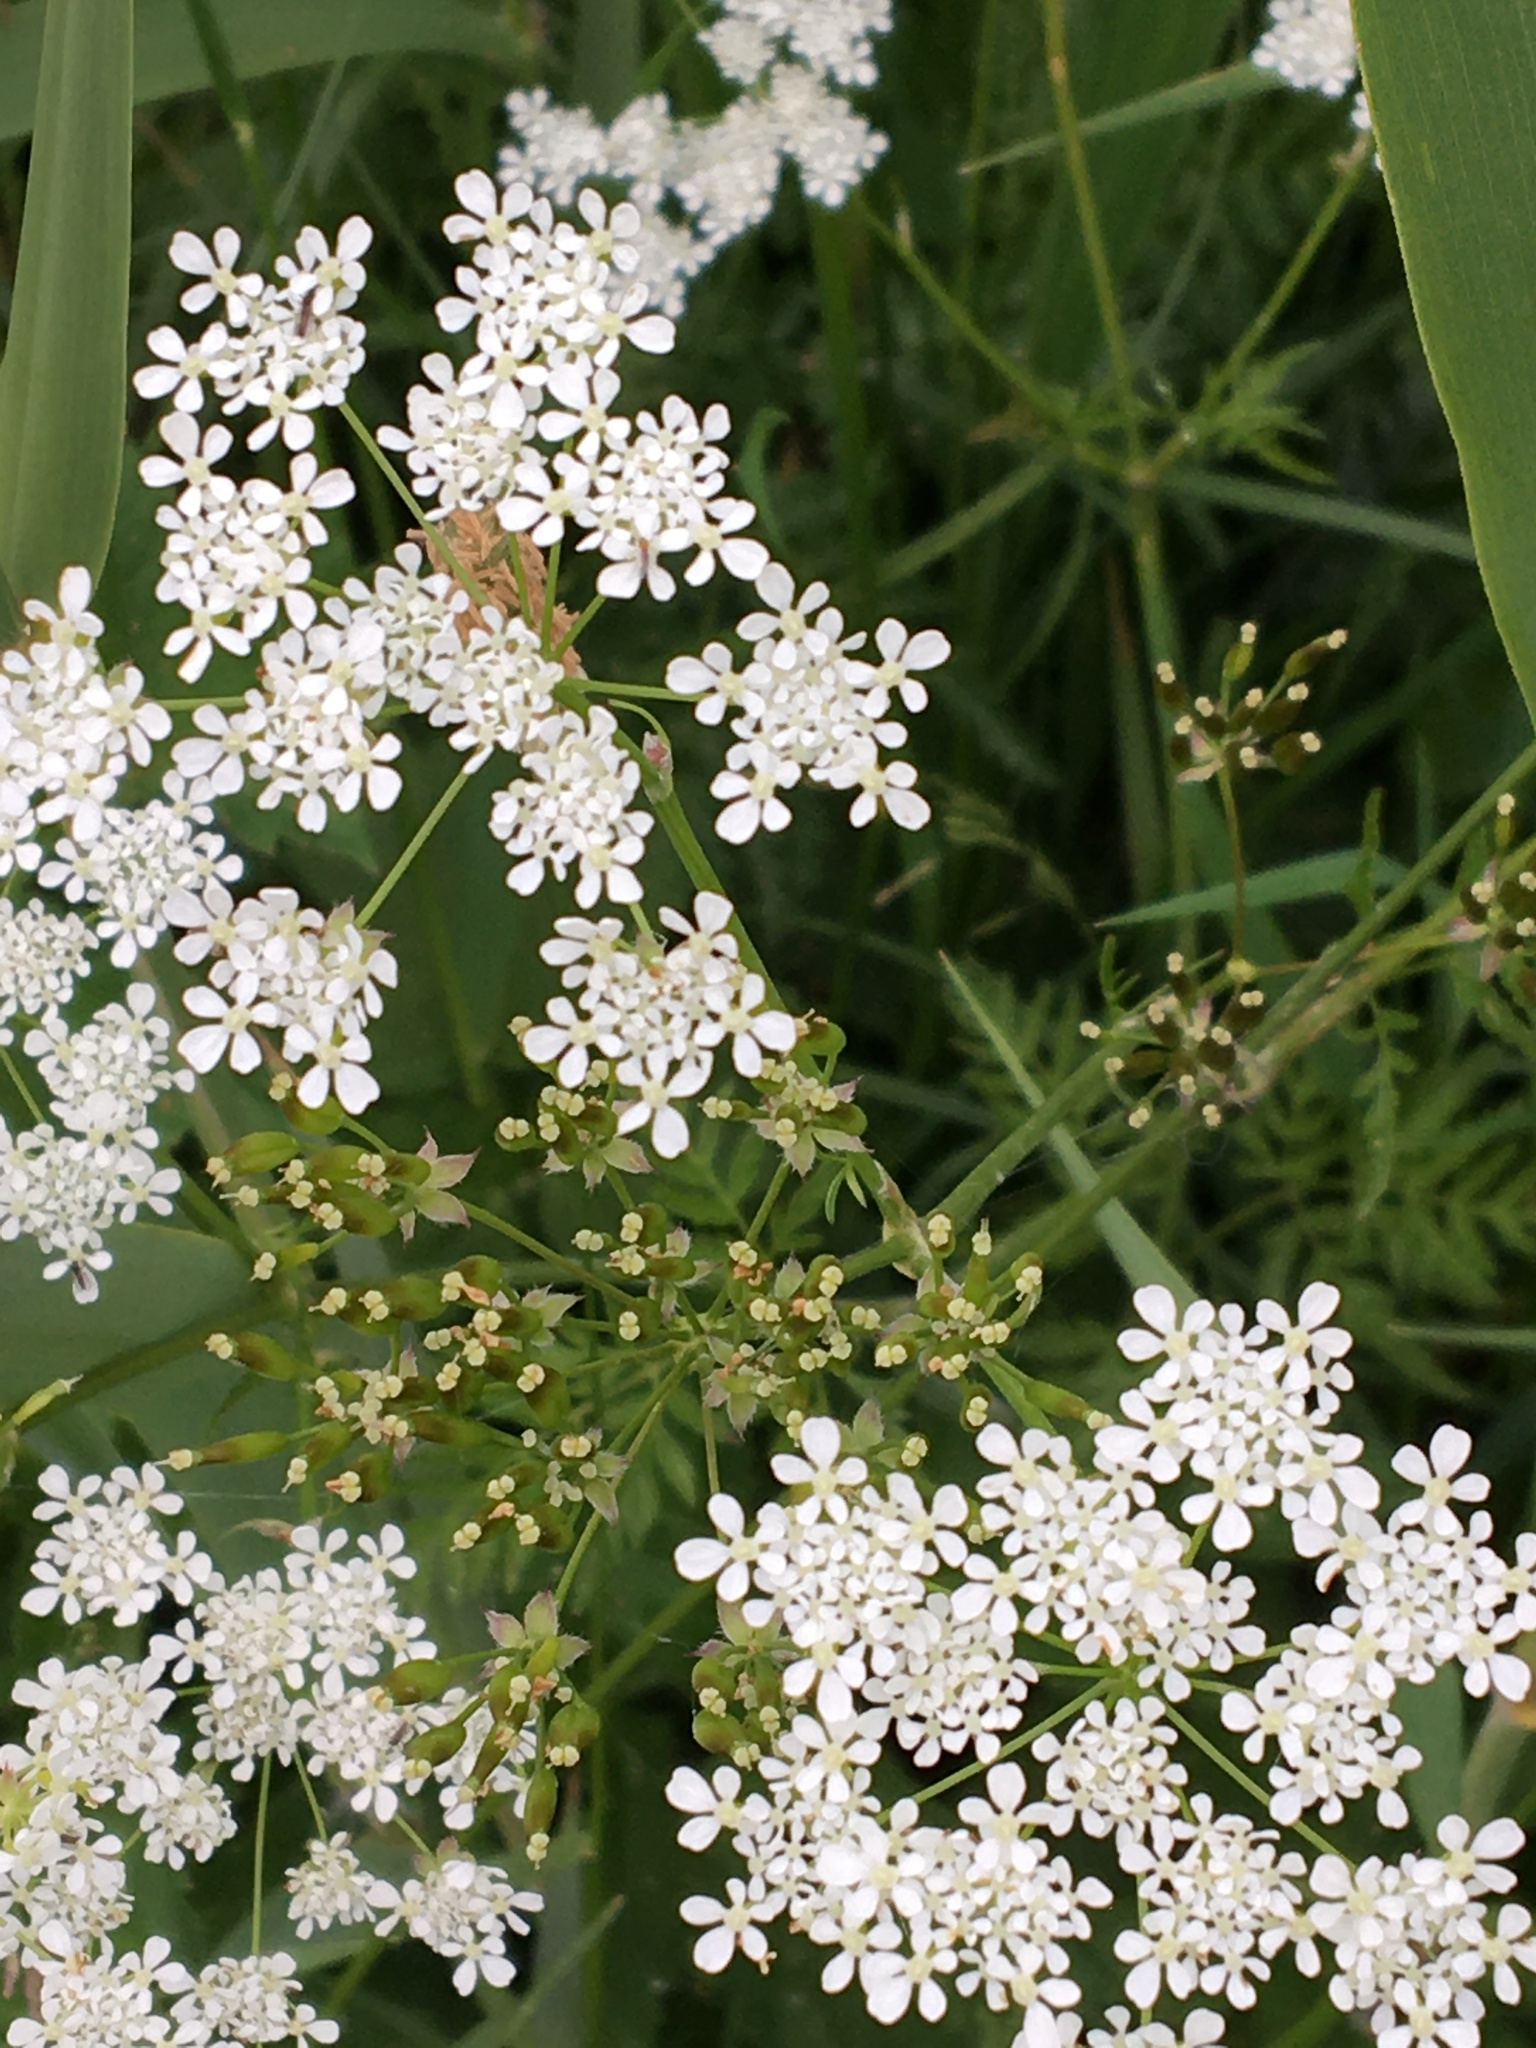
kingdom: Plantae
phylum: Tracheophyta
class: Magnoliopsida
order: Apiales
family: Apiaceae
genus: Anthriscus
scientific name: Anthriscus sylvestris
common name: Cow parsley
